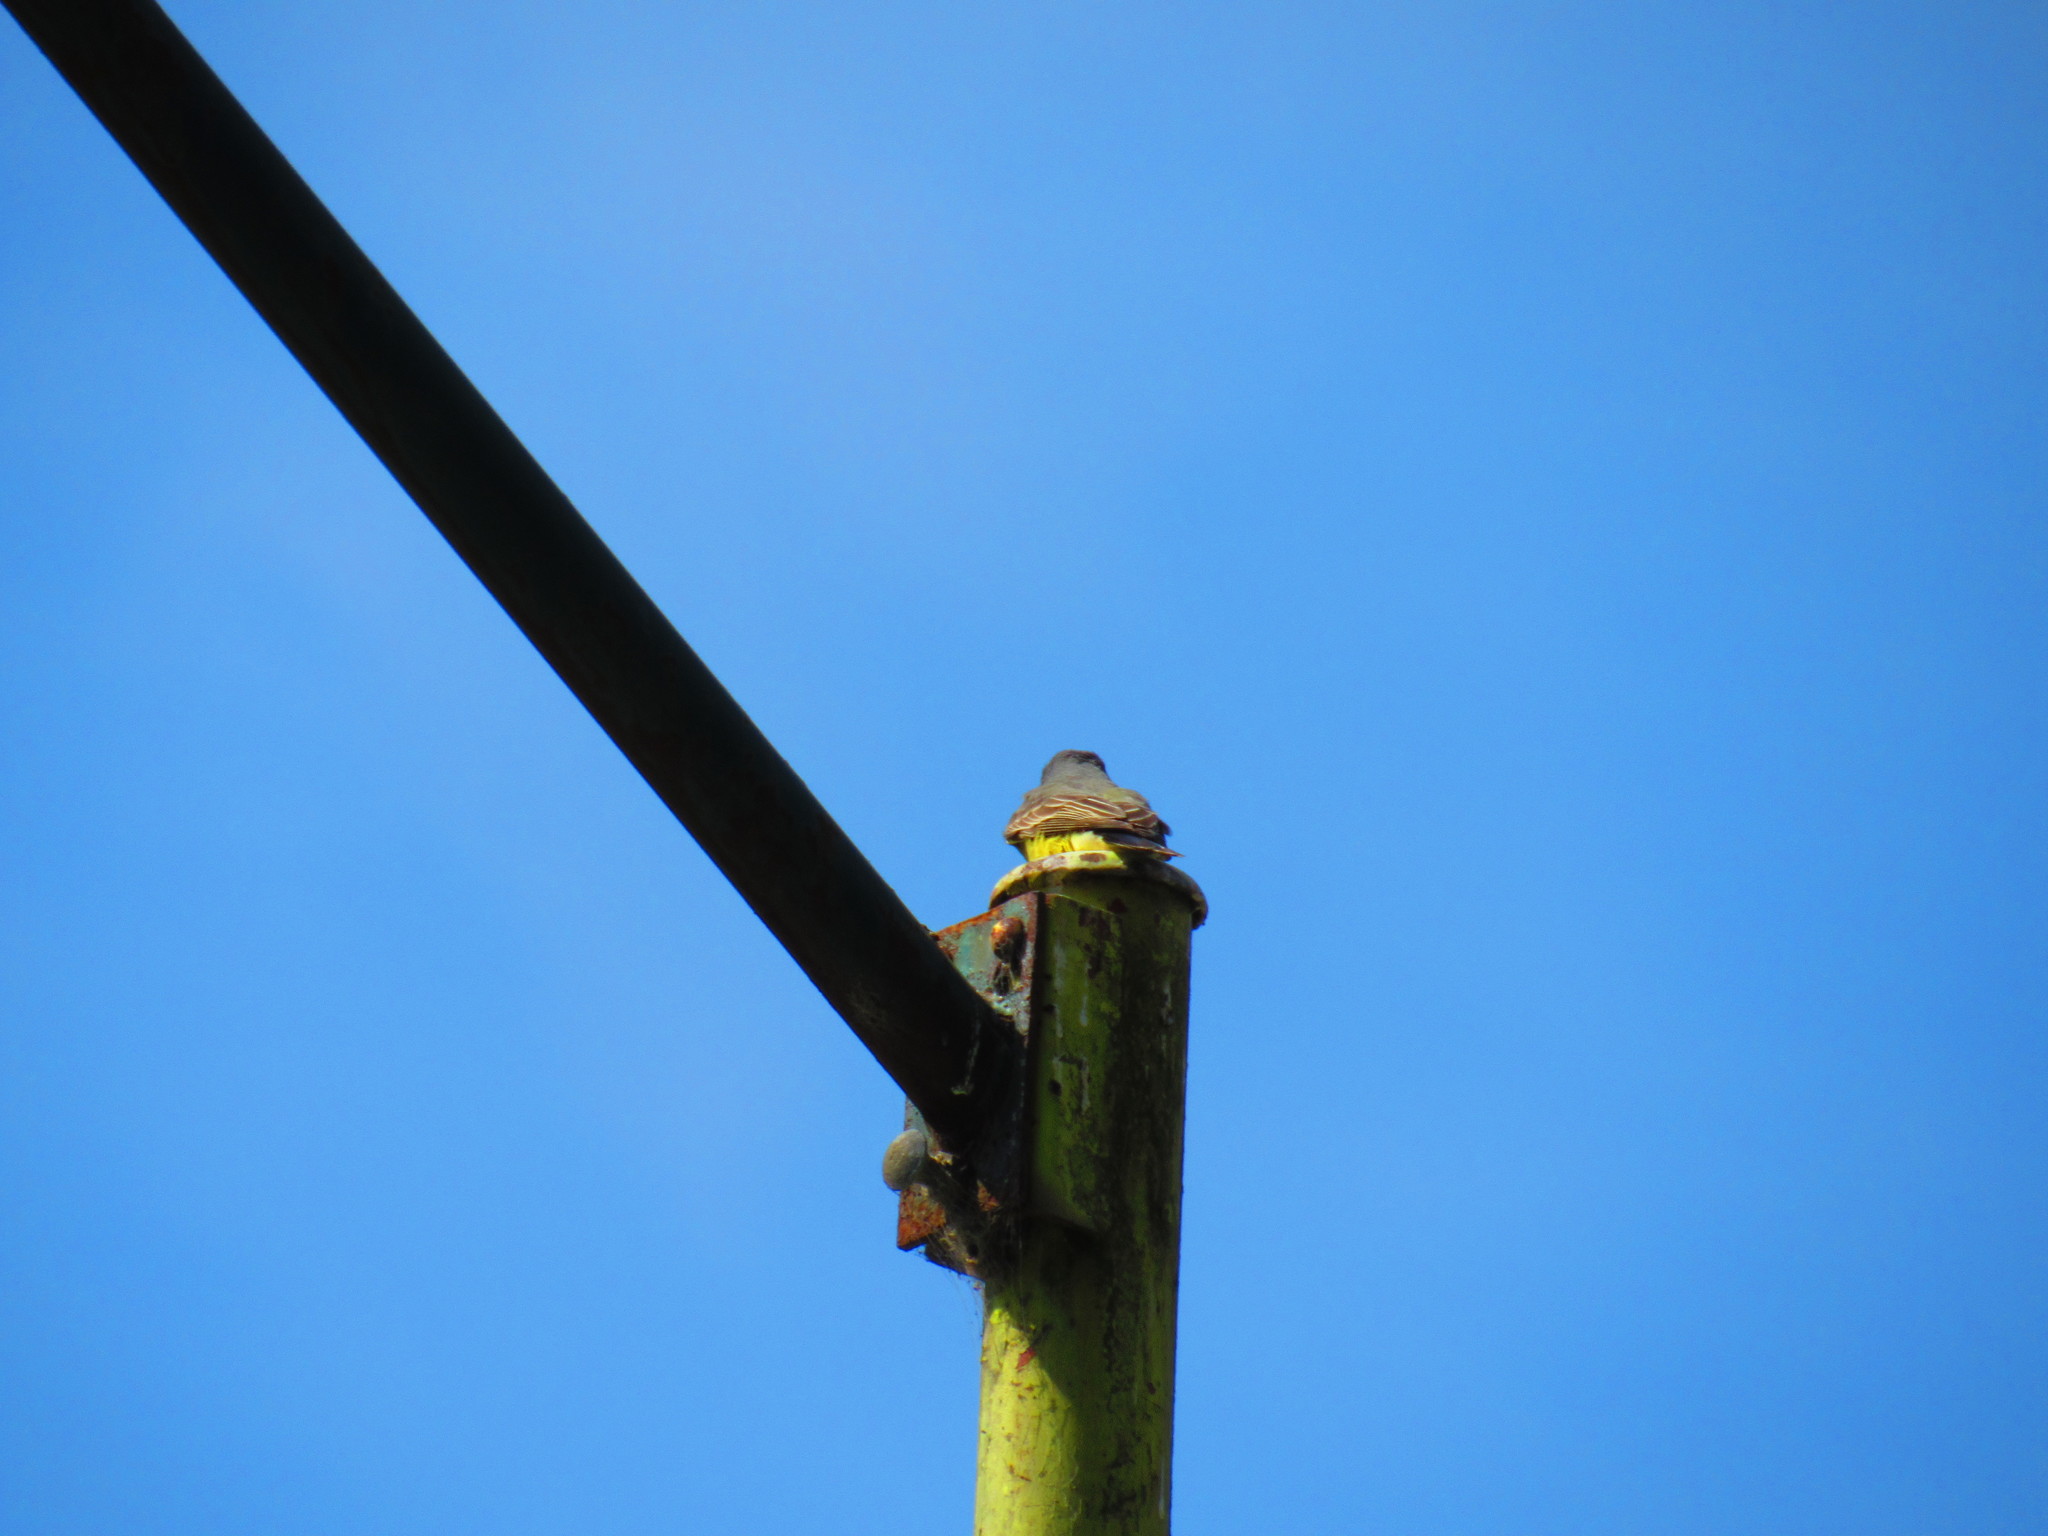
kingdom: Animalia
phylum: Chordata
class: Aves
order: Passeriformes
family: Tyrannidae
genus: Tyrannus
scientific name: Tyrannus vociferans
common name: Cassin's kingbird
